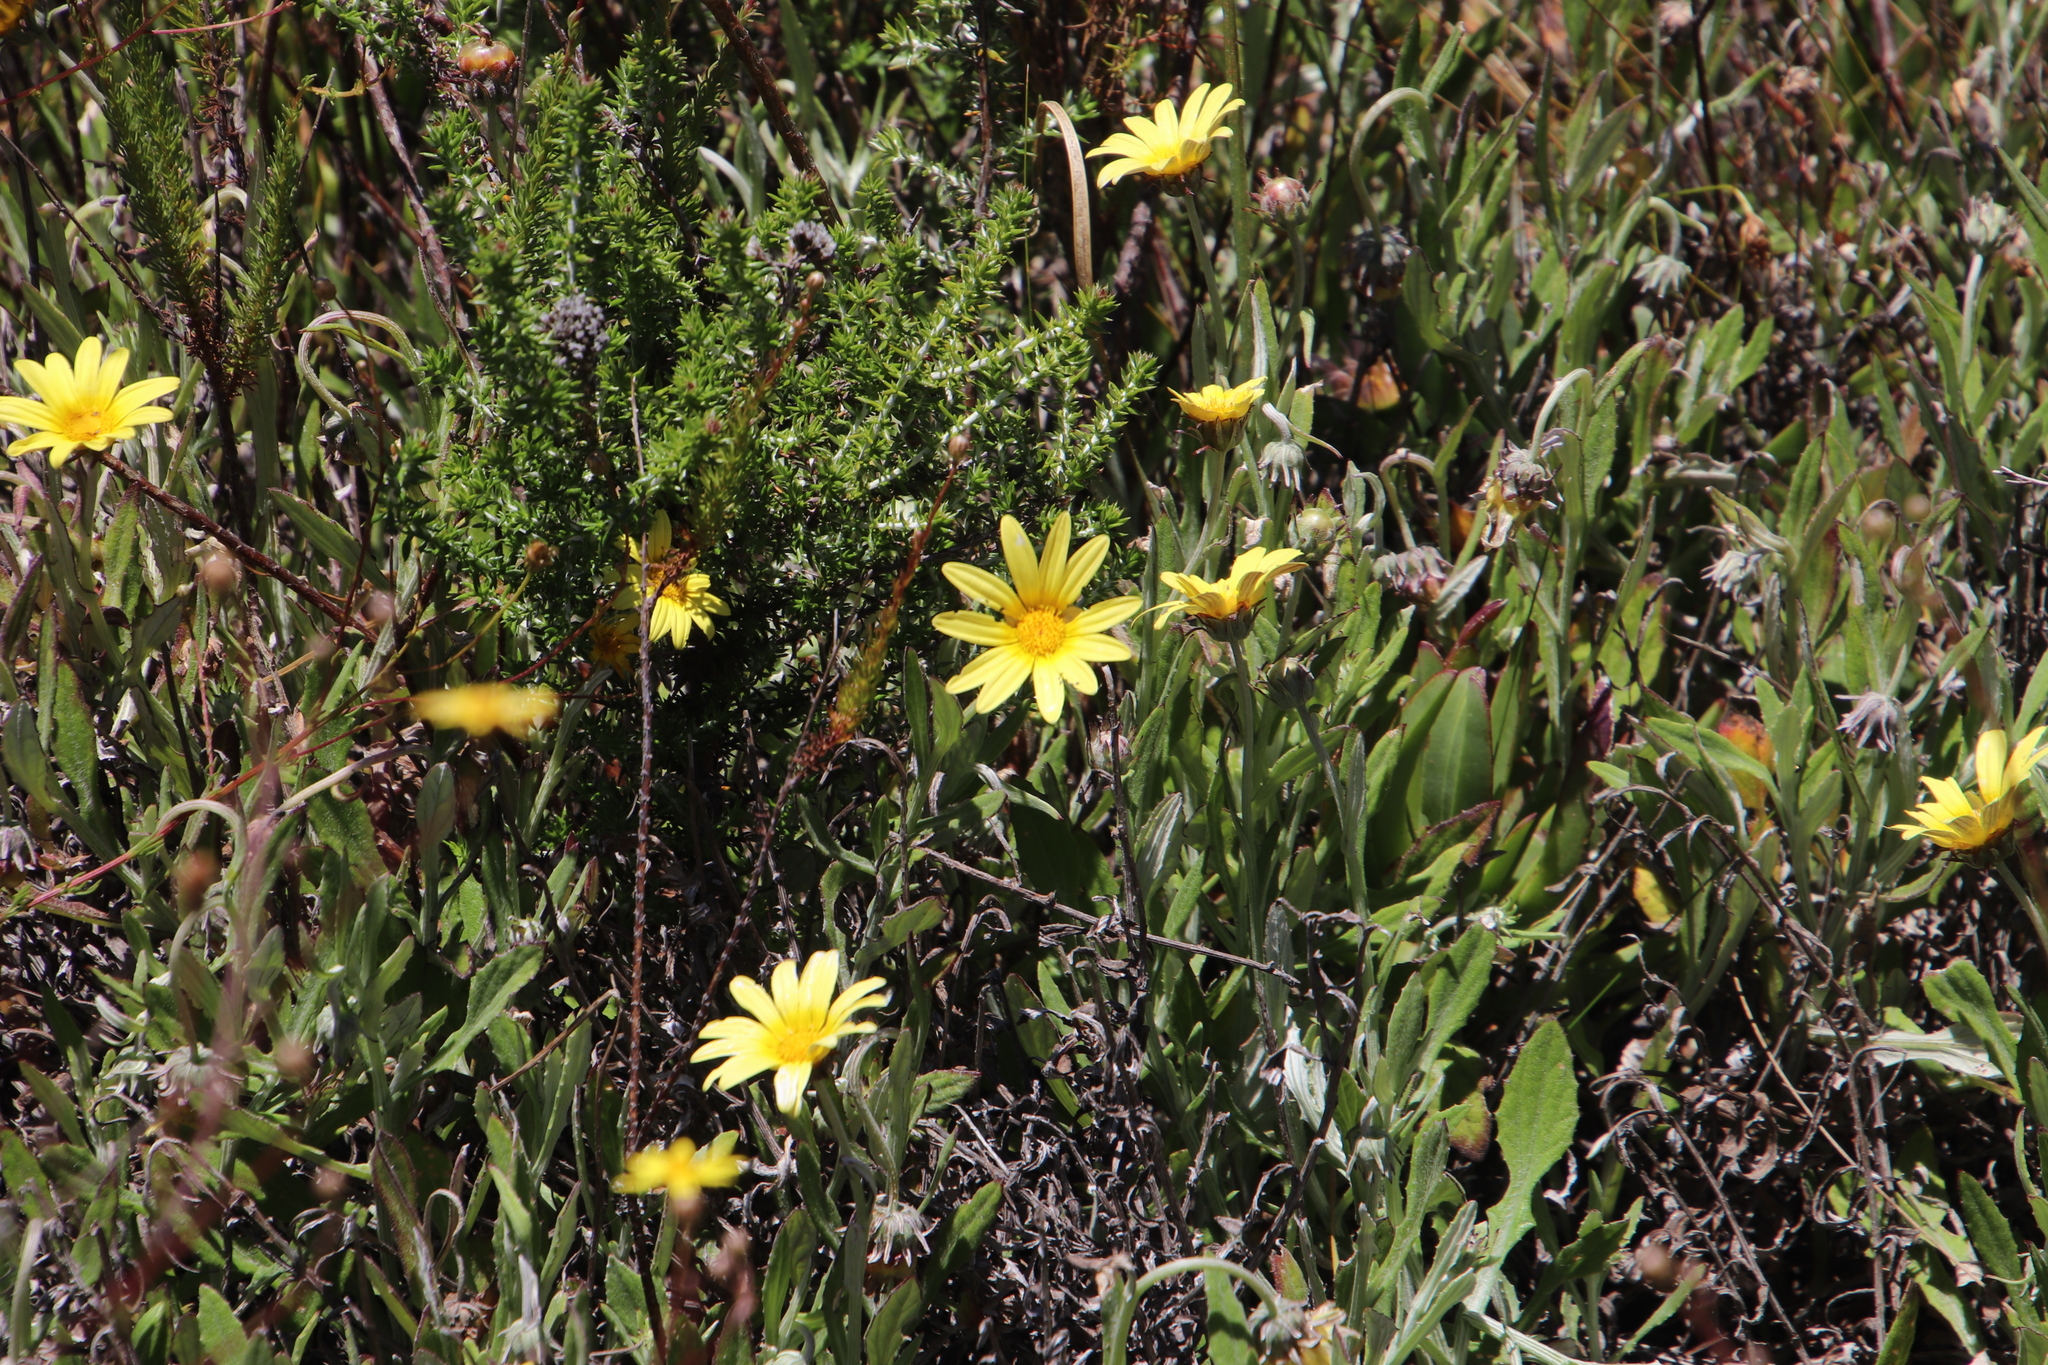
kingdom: Plantae
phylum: Tracheophyta
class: Magnoliopsida
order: Asterales
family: Asteraceae
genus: Arctotis
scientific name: Arctotis scabra
